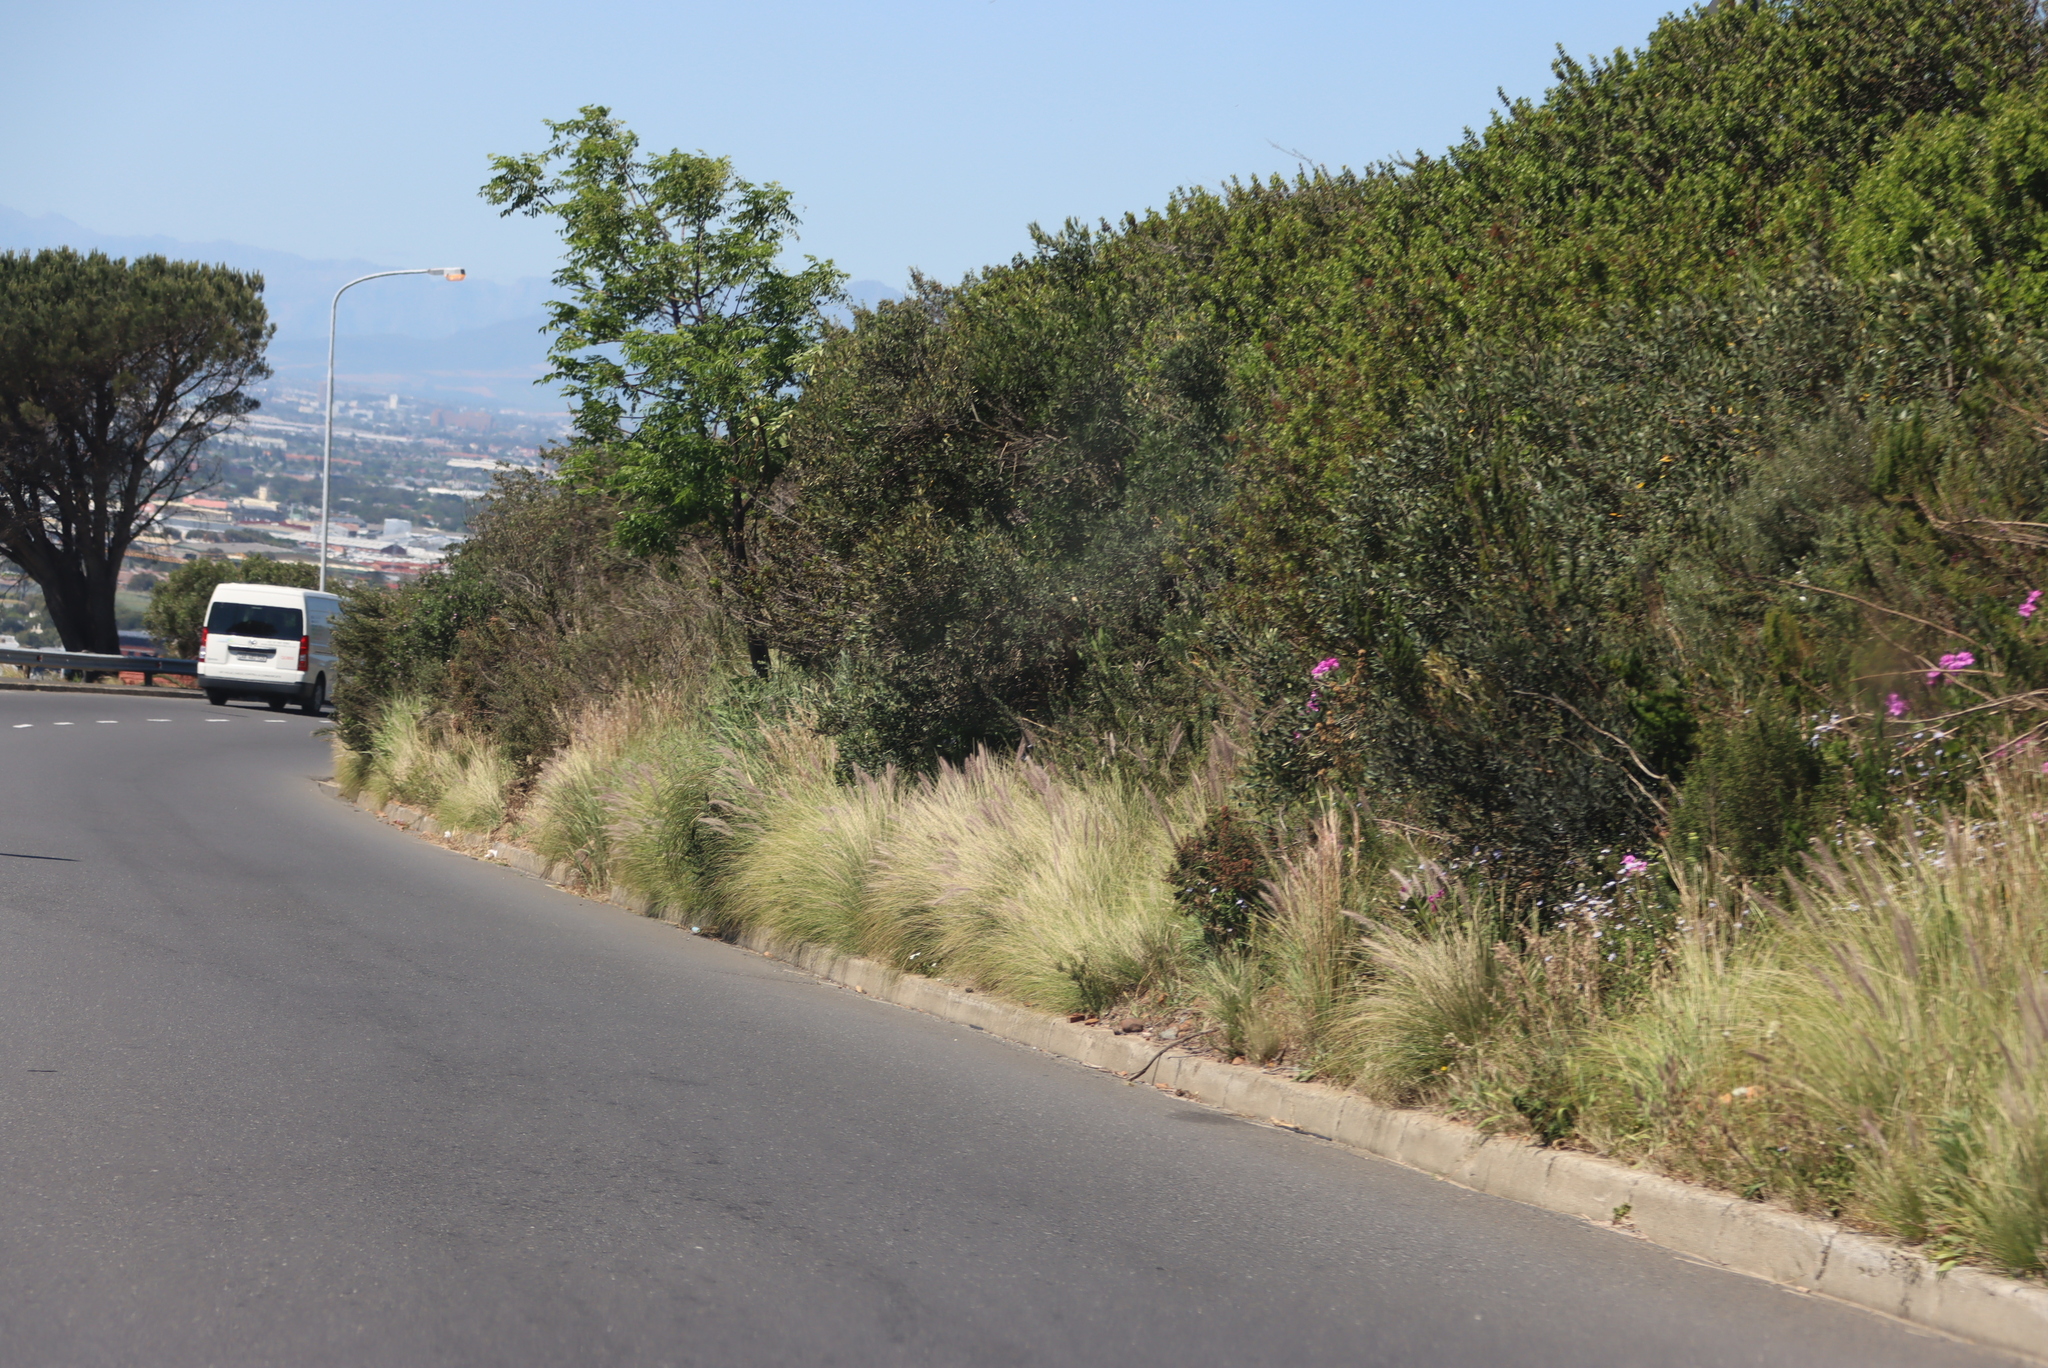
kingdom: Plantae
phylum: Tracheophyta
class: Liliopsida
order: Poales
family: Poaceae
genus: Cenchrus
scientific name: Cenchrus setaceus
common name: Crimson fountaingrass
